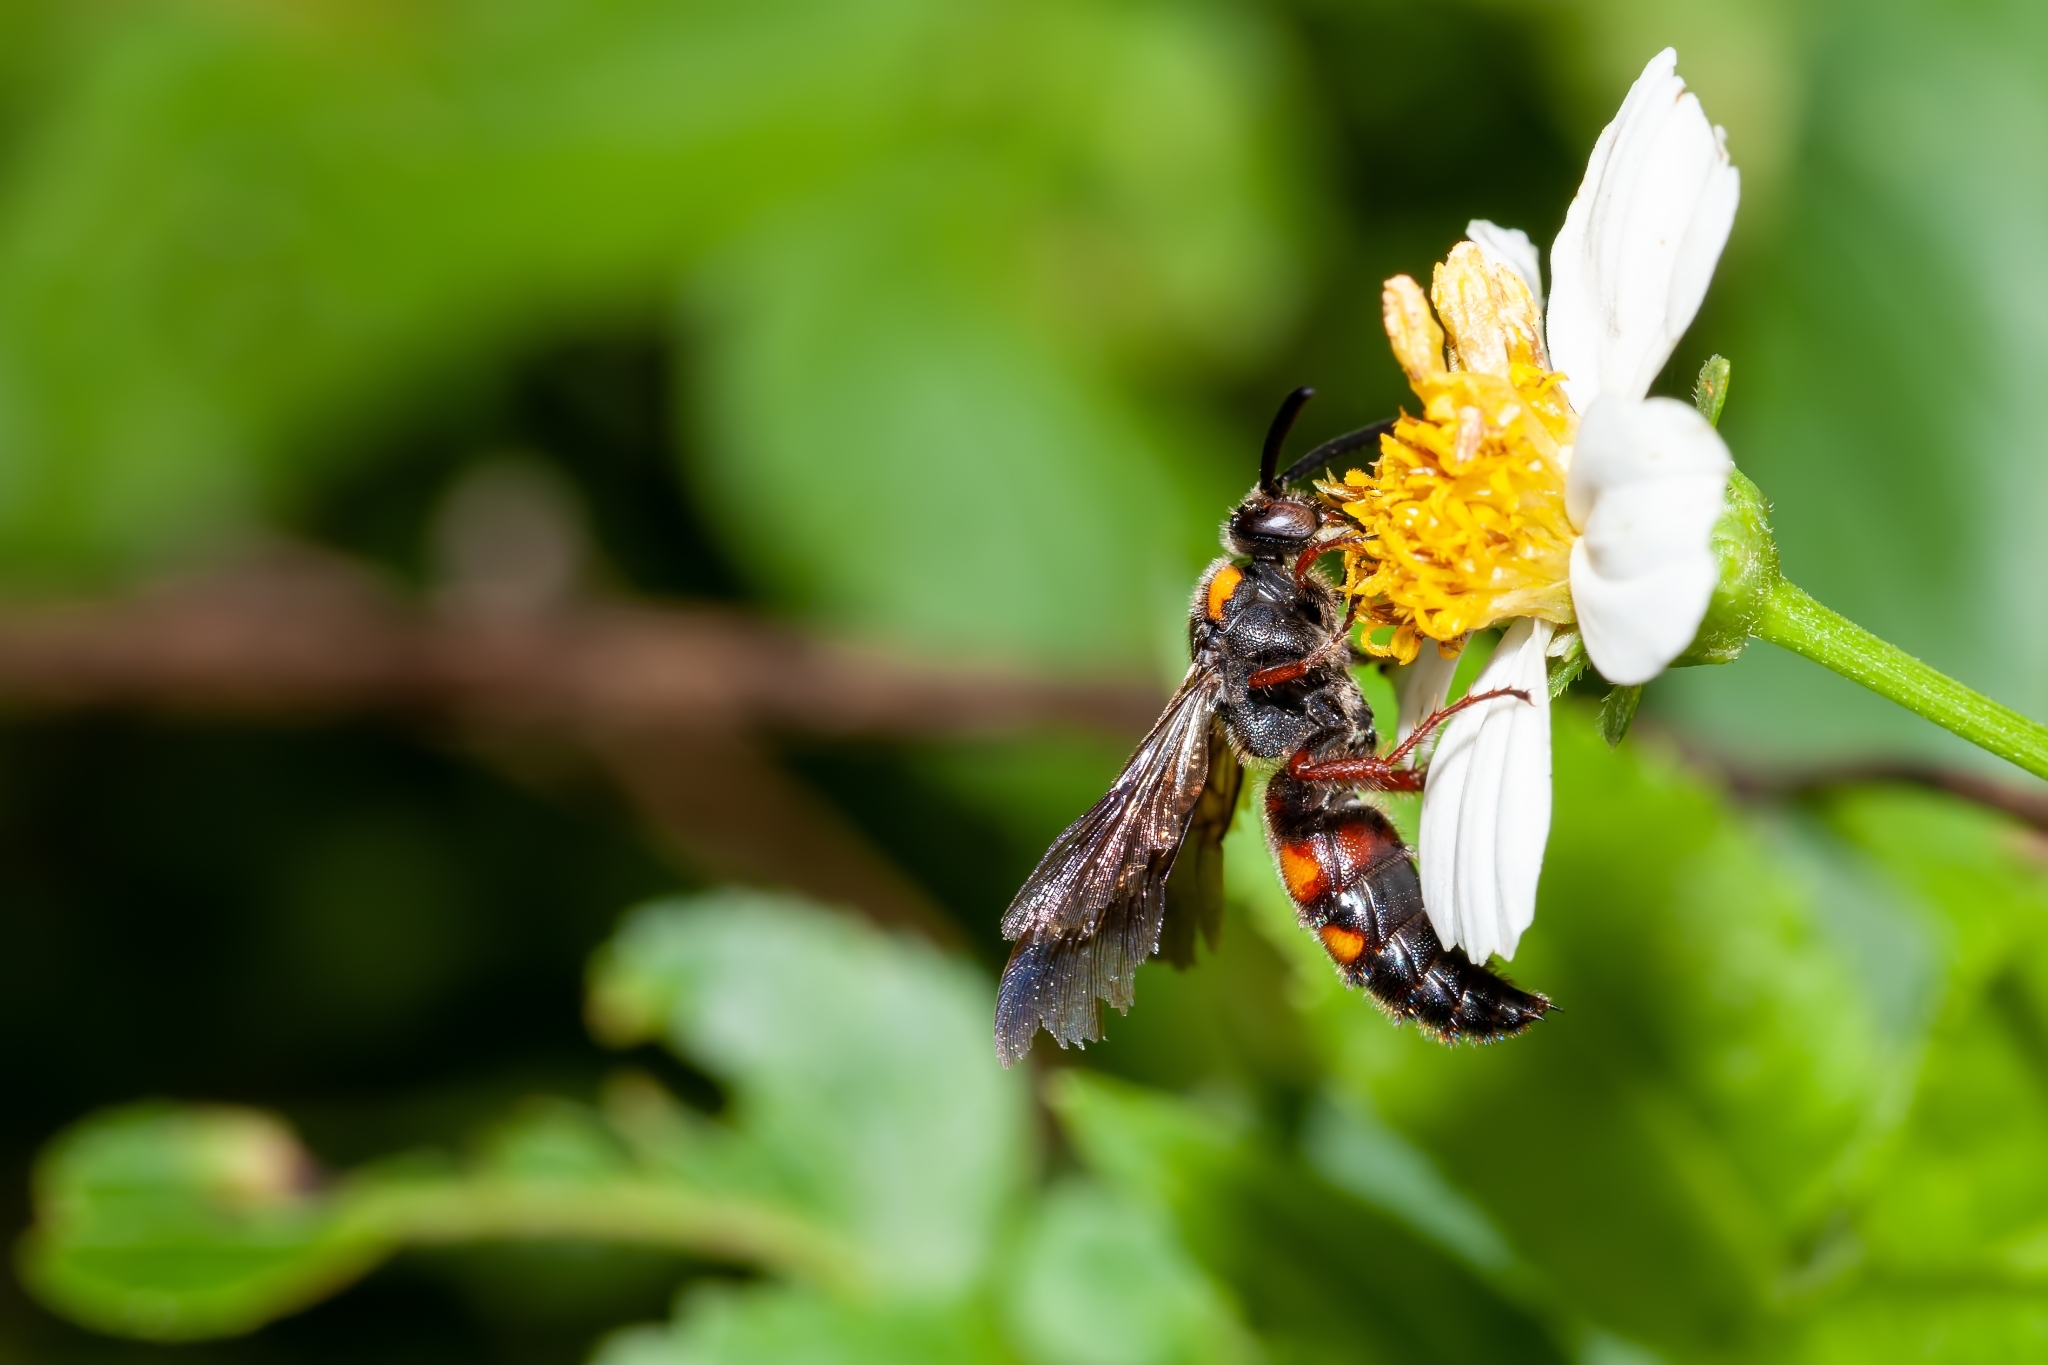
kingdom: Animalia
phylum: Arthropoda
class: Insecta
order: Hymenoptera
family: Scoliidae
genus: Scolia
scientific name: Scolia nobilitata
